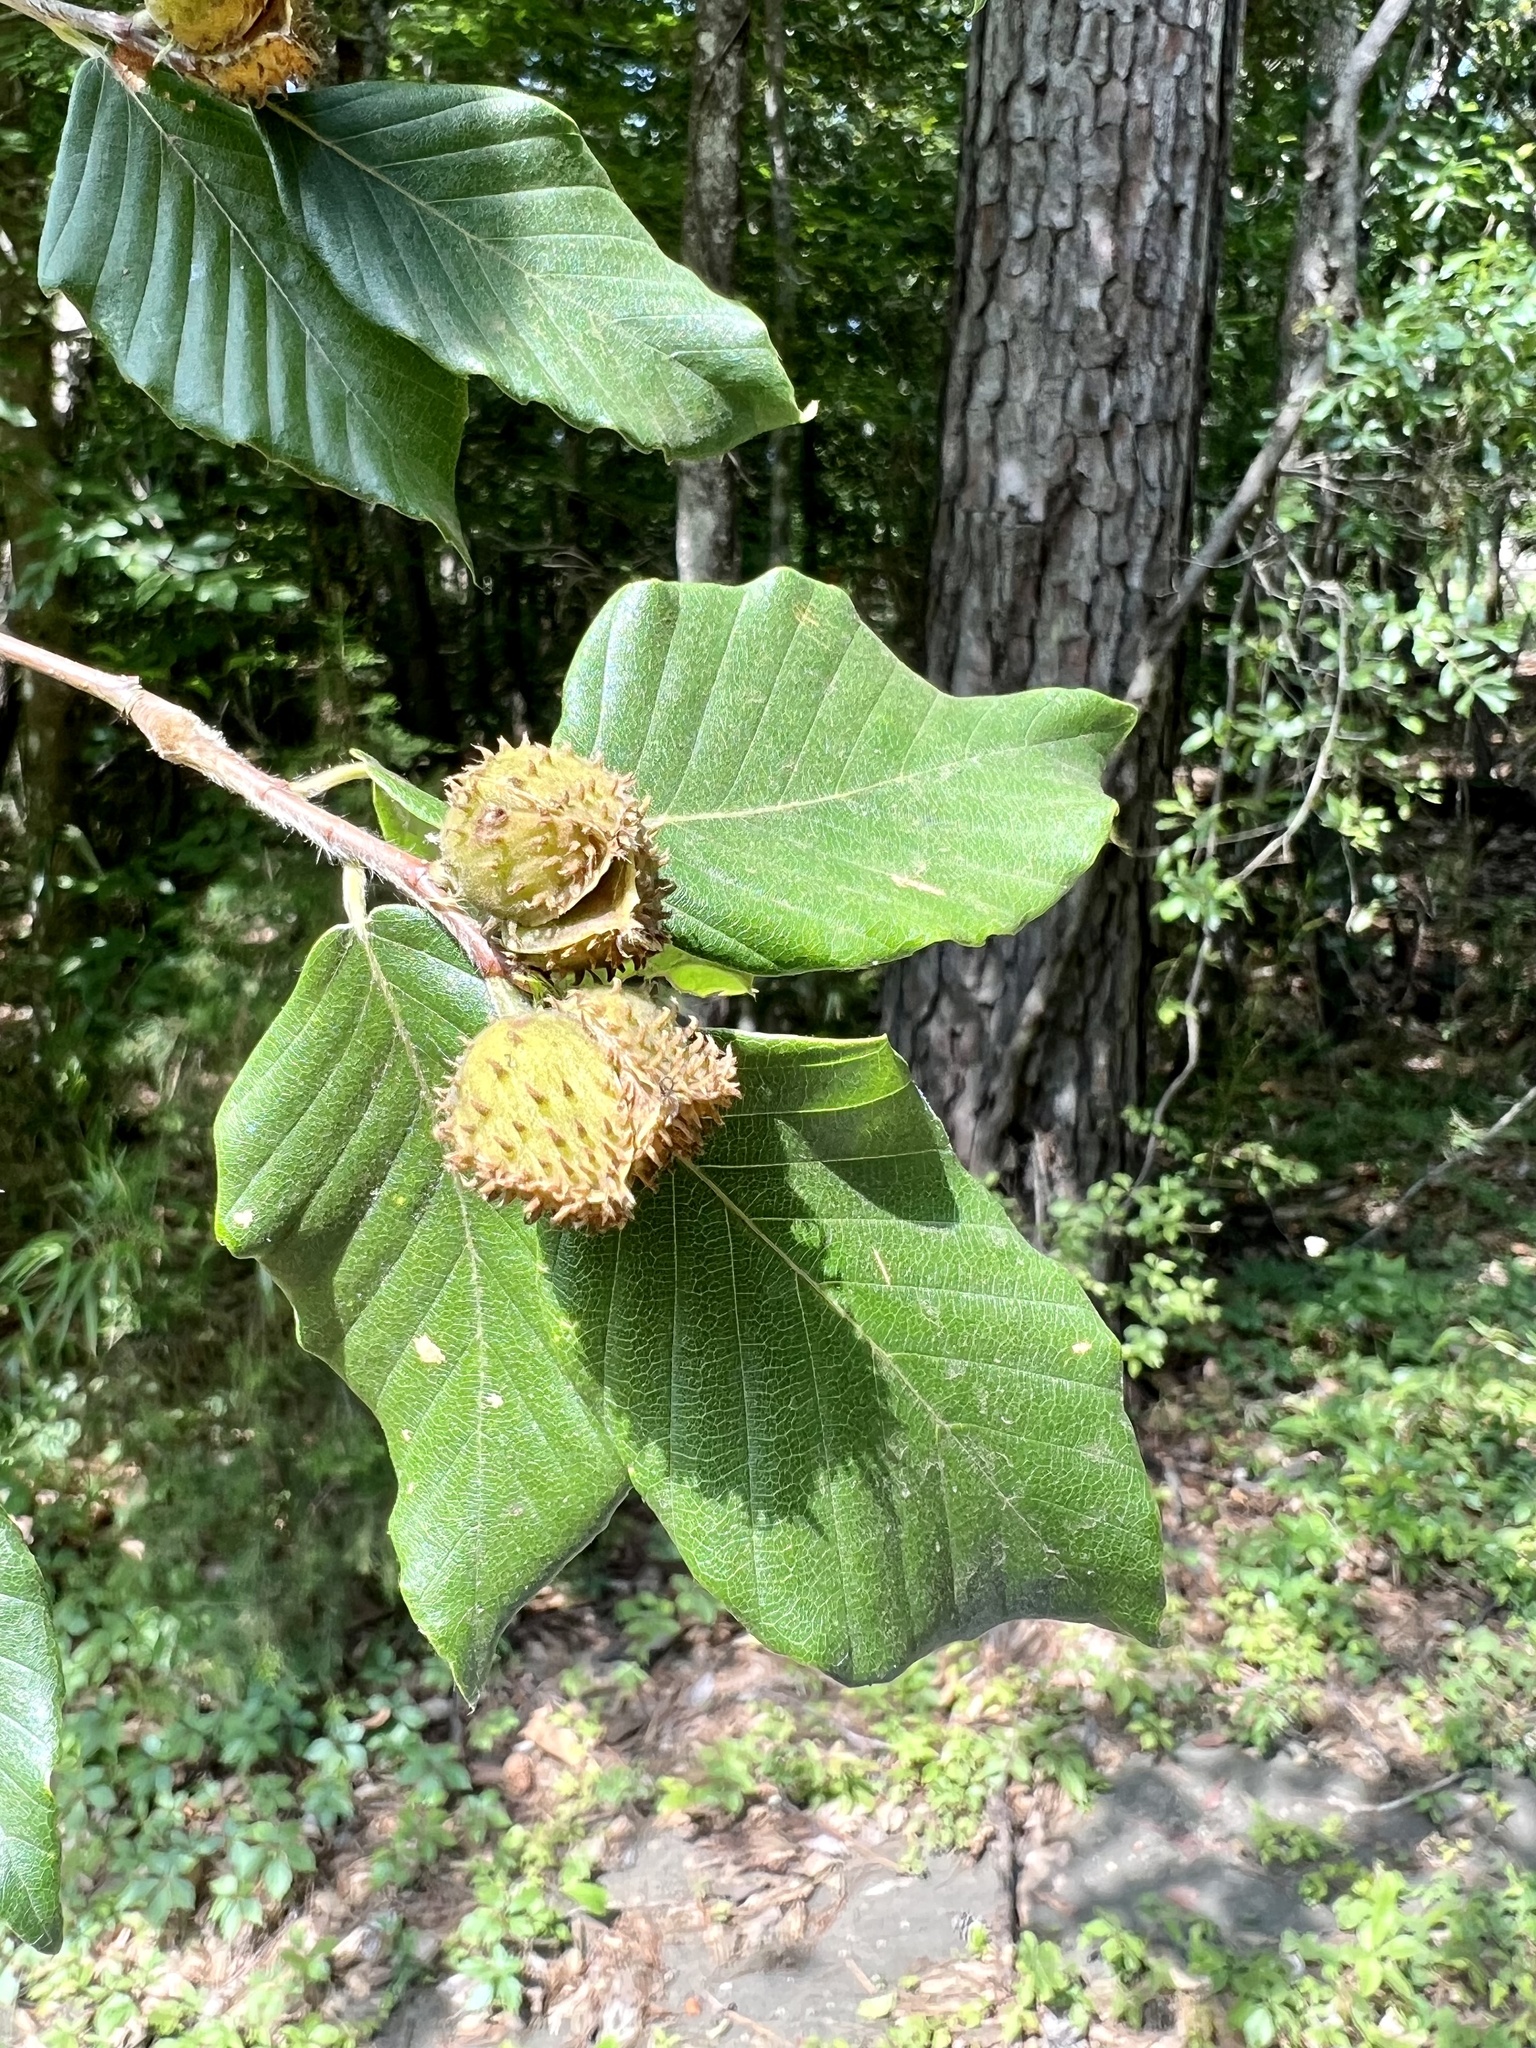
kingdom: Plantae
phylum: Tracheophyta
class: Magnoliopsida
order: Fagales
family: Fagaceae
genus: Fagus
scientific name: Fagus grandifolia
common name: American beech
